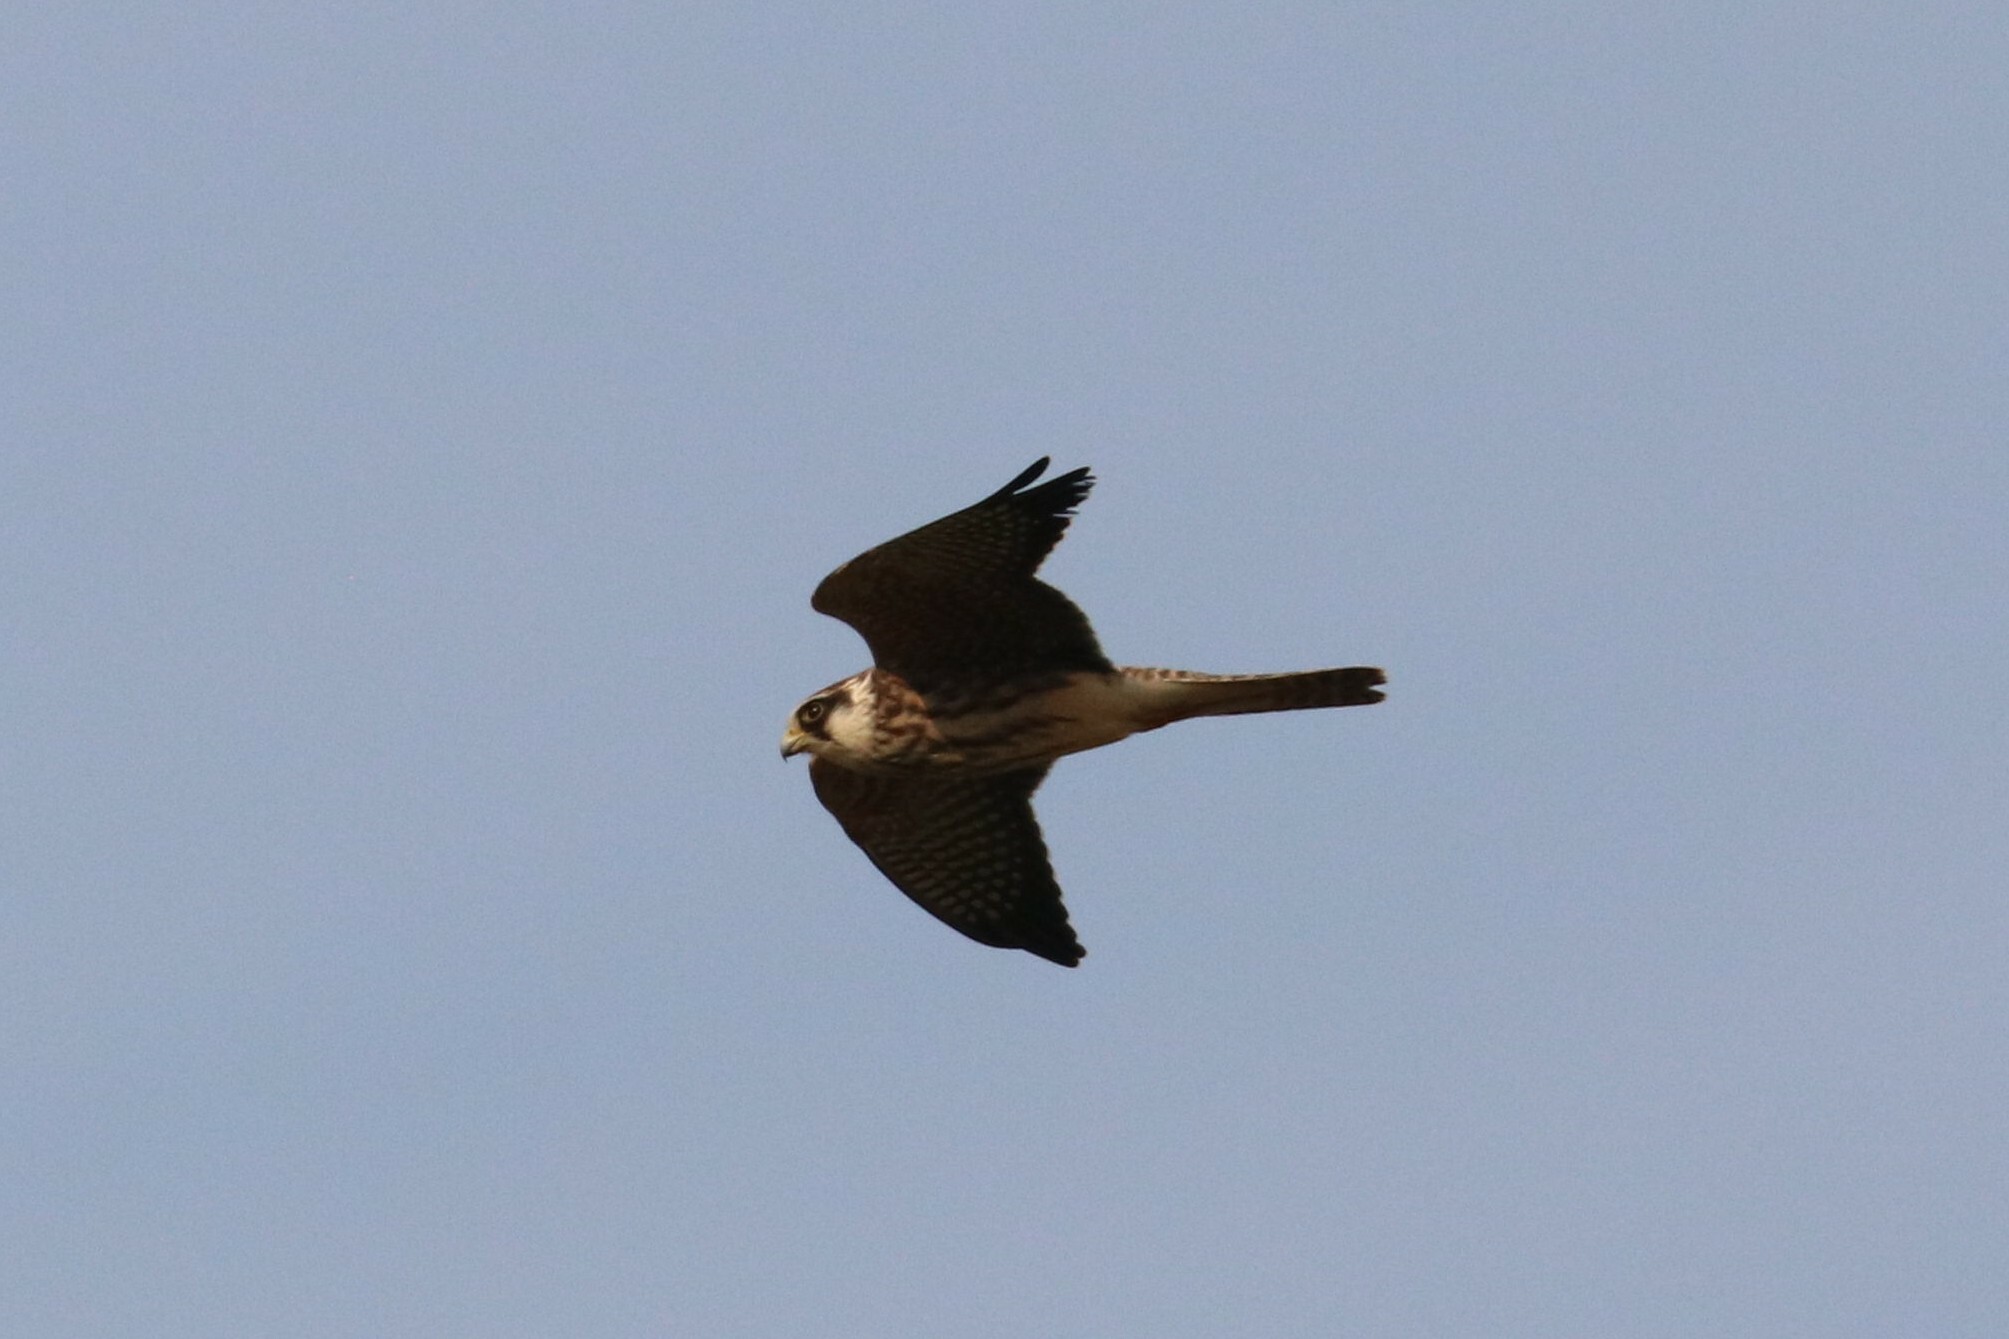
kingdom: Animalia
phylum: Chordata
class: Aves
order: Falconiformes
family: Falconidae
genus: Falco
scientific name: Falco vespertinus
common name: Red-footed falcon
